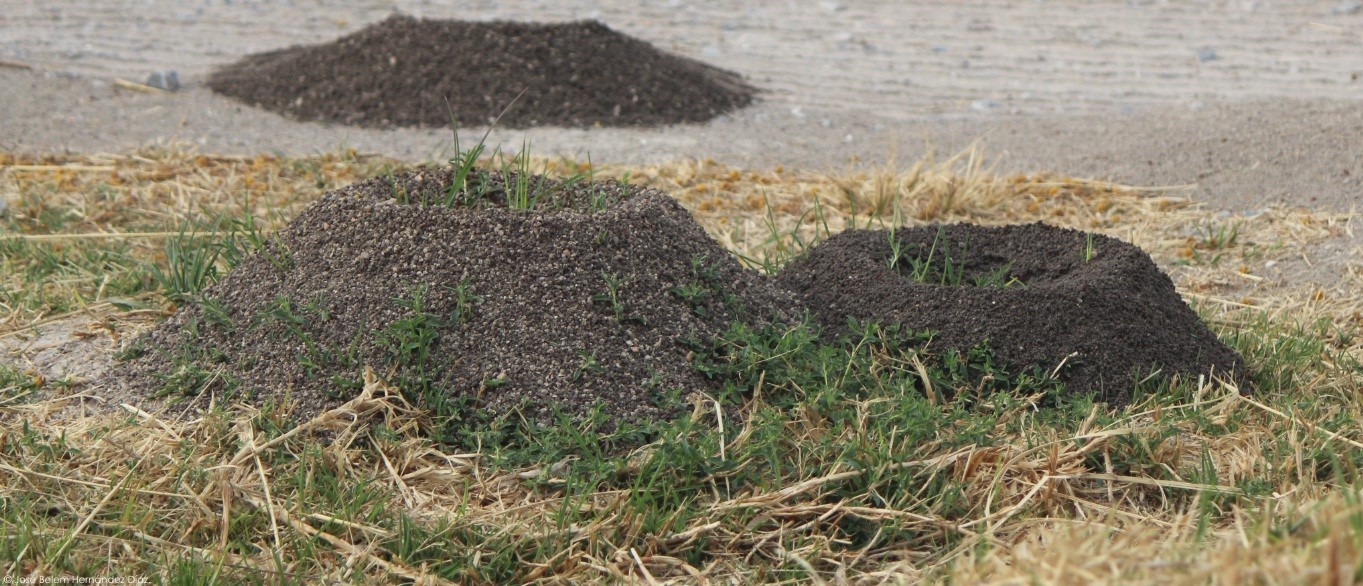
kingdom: Animalia
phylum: Arthropoda
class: Insecta
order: Hymenoptera
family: Formicidae
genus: Atta
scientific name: Atta mexicana
